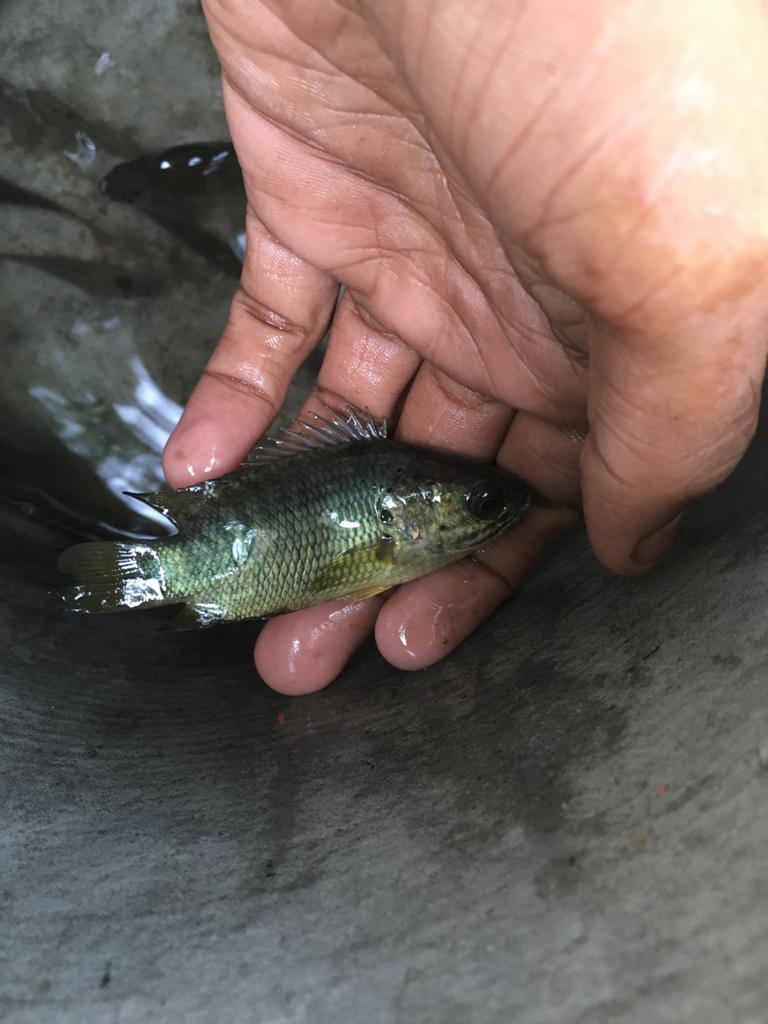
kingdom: Animalia
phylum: Chordata
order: Perciformes
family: Anabantidae
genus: Anabas
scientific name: Anabas testudineus
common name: Climbing perch
